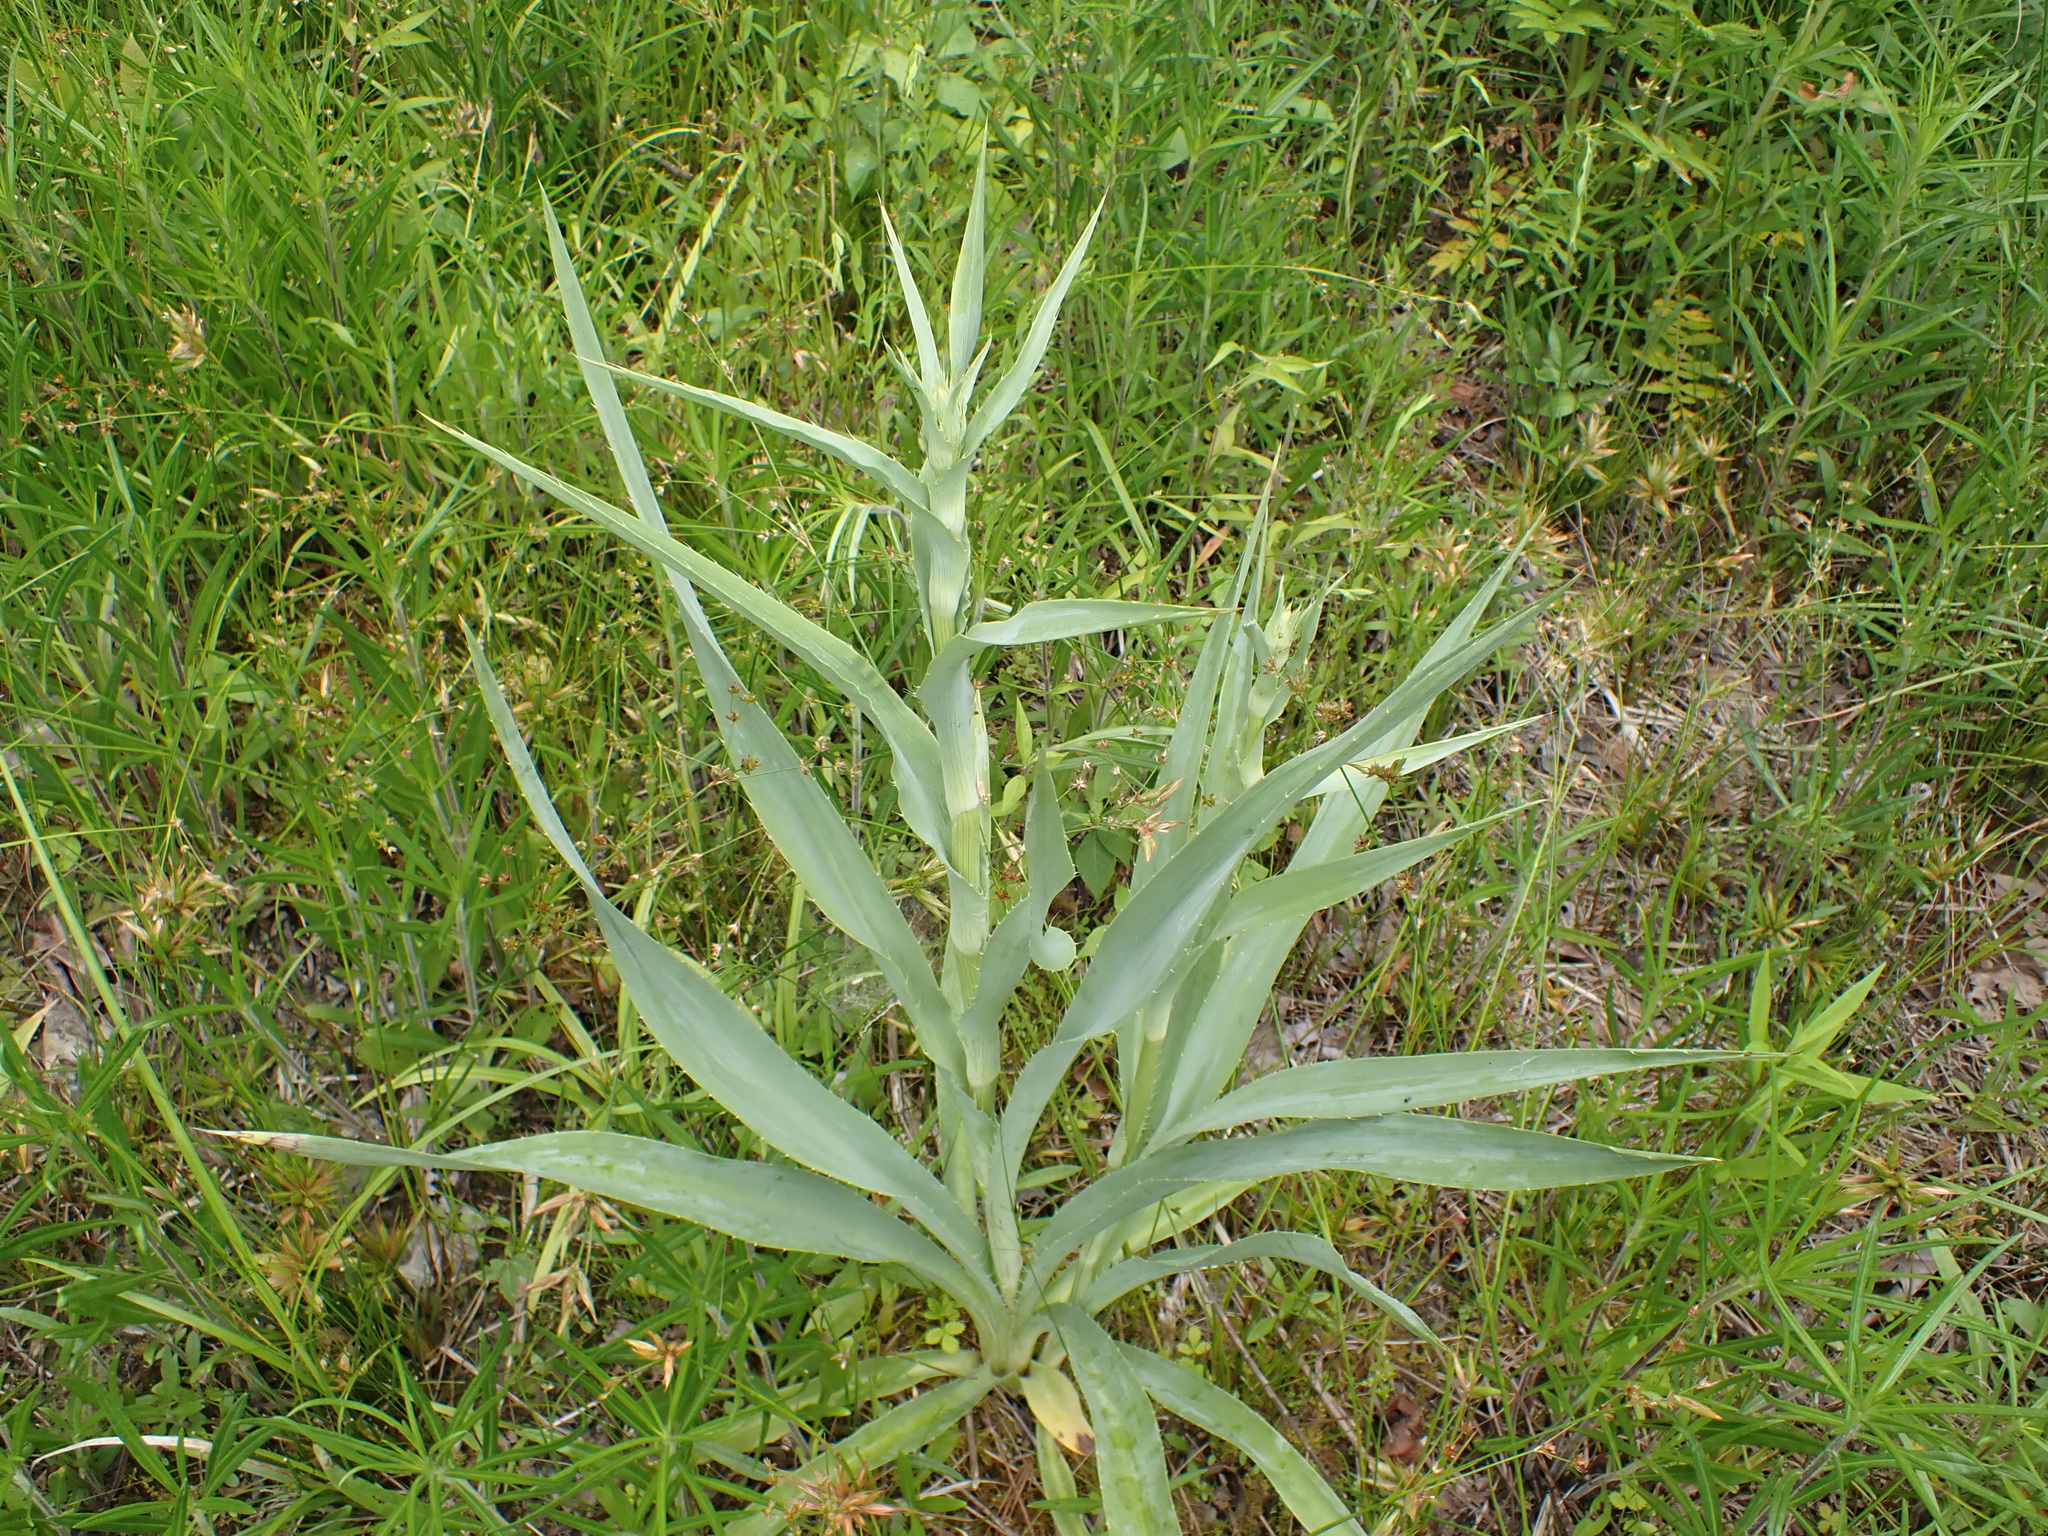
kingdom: Plantae
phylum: Tracheophyta
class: Magnoliopsida
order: Apiales
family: Apiaceae
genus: Eryngium
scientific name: Eryngium yuccifolium
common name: Button eryngo
